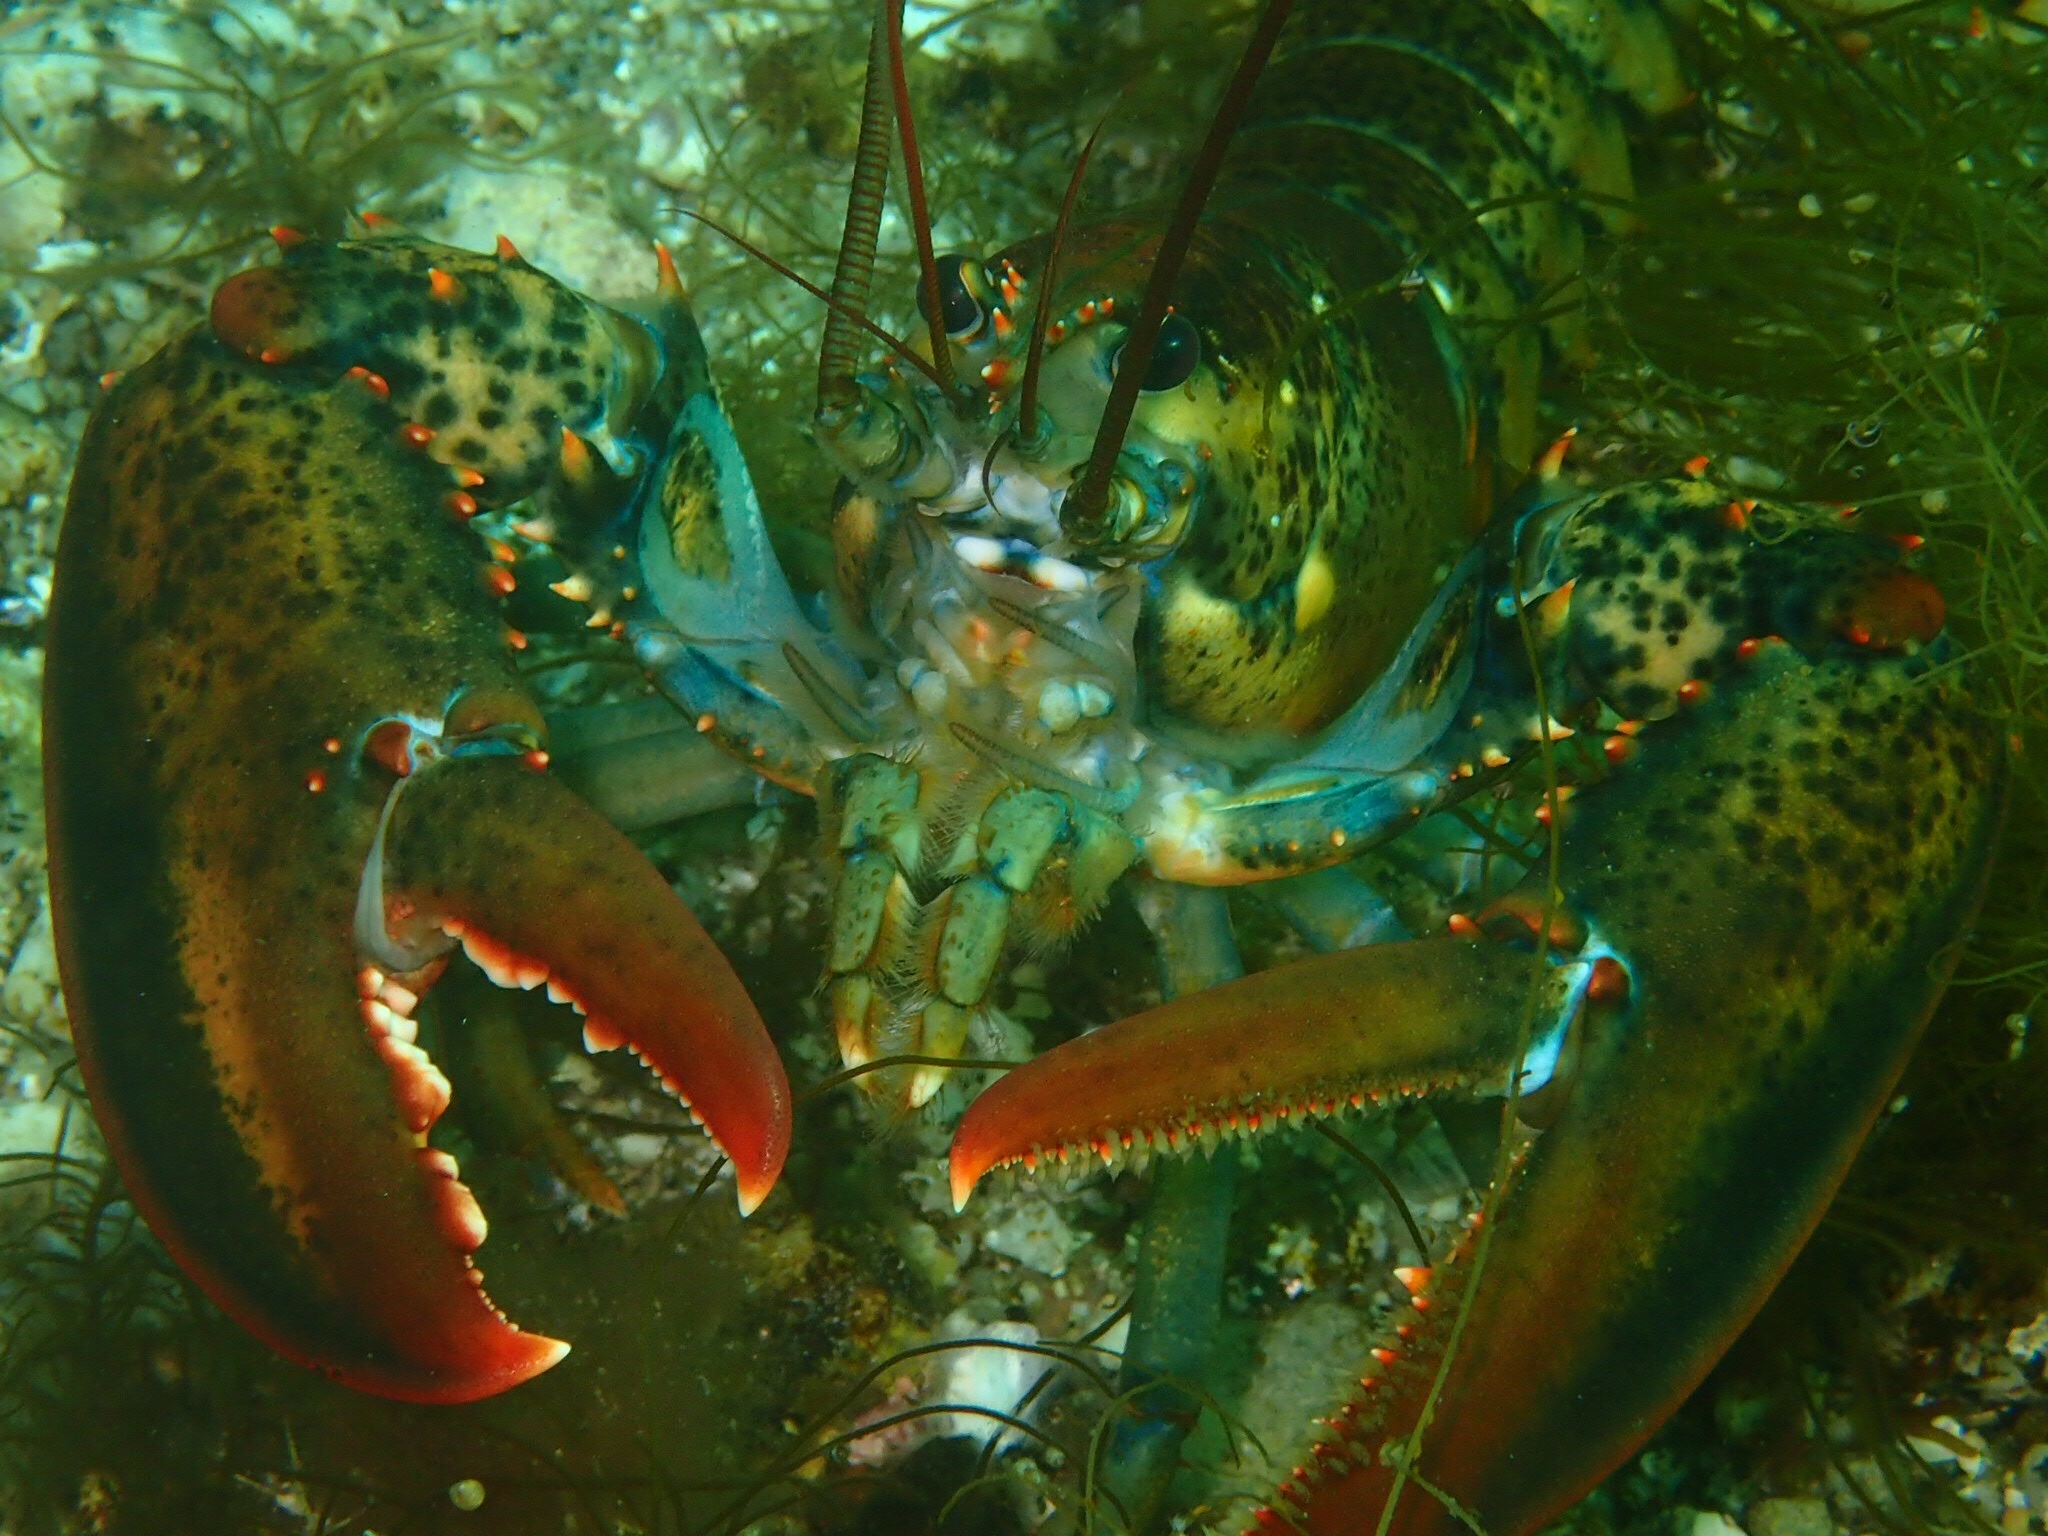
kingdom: Animalia
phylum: Arthropoda
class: Malacostraca
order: Decapoda
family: Nephropidae
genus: Homarus
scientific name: Homarus americanus
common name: American lobster
